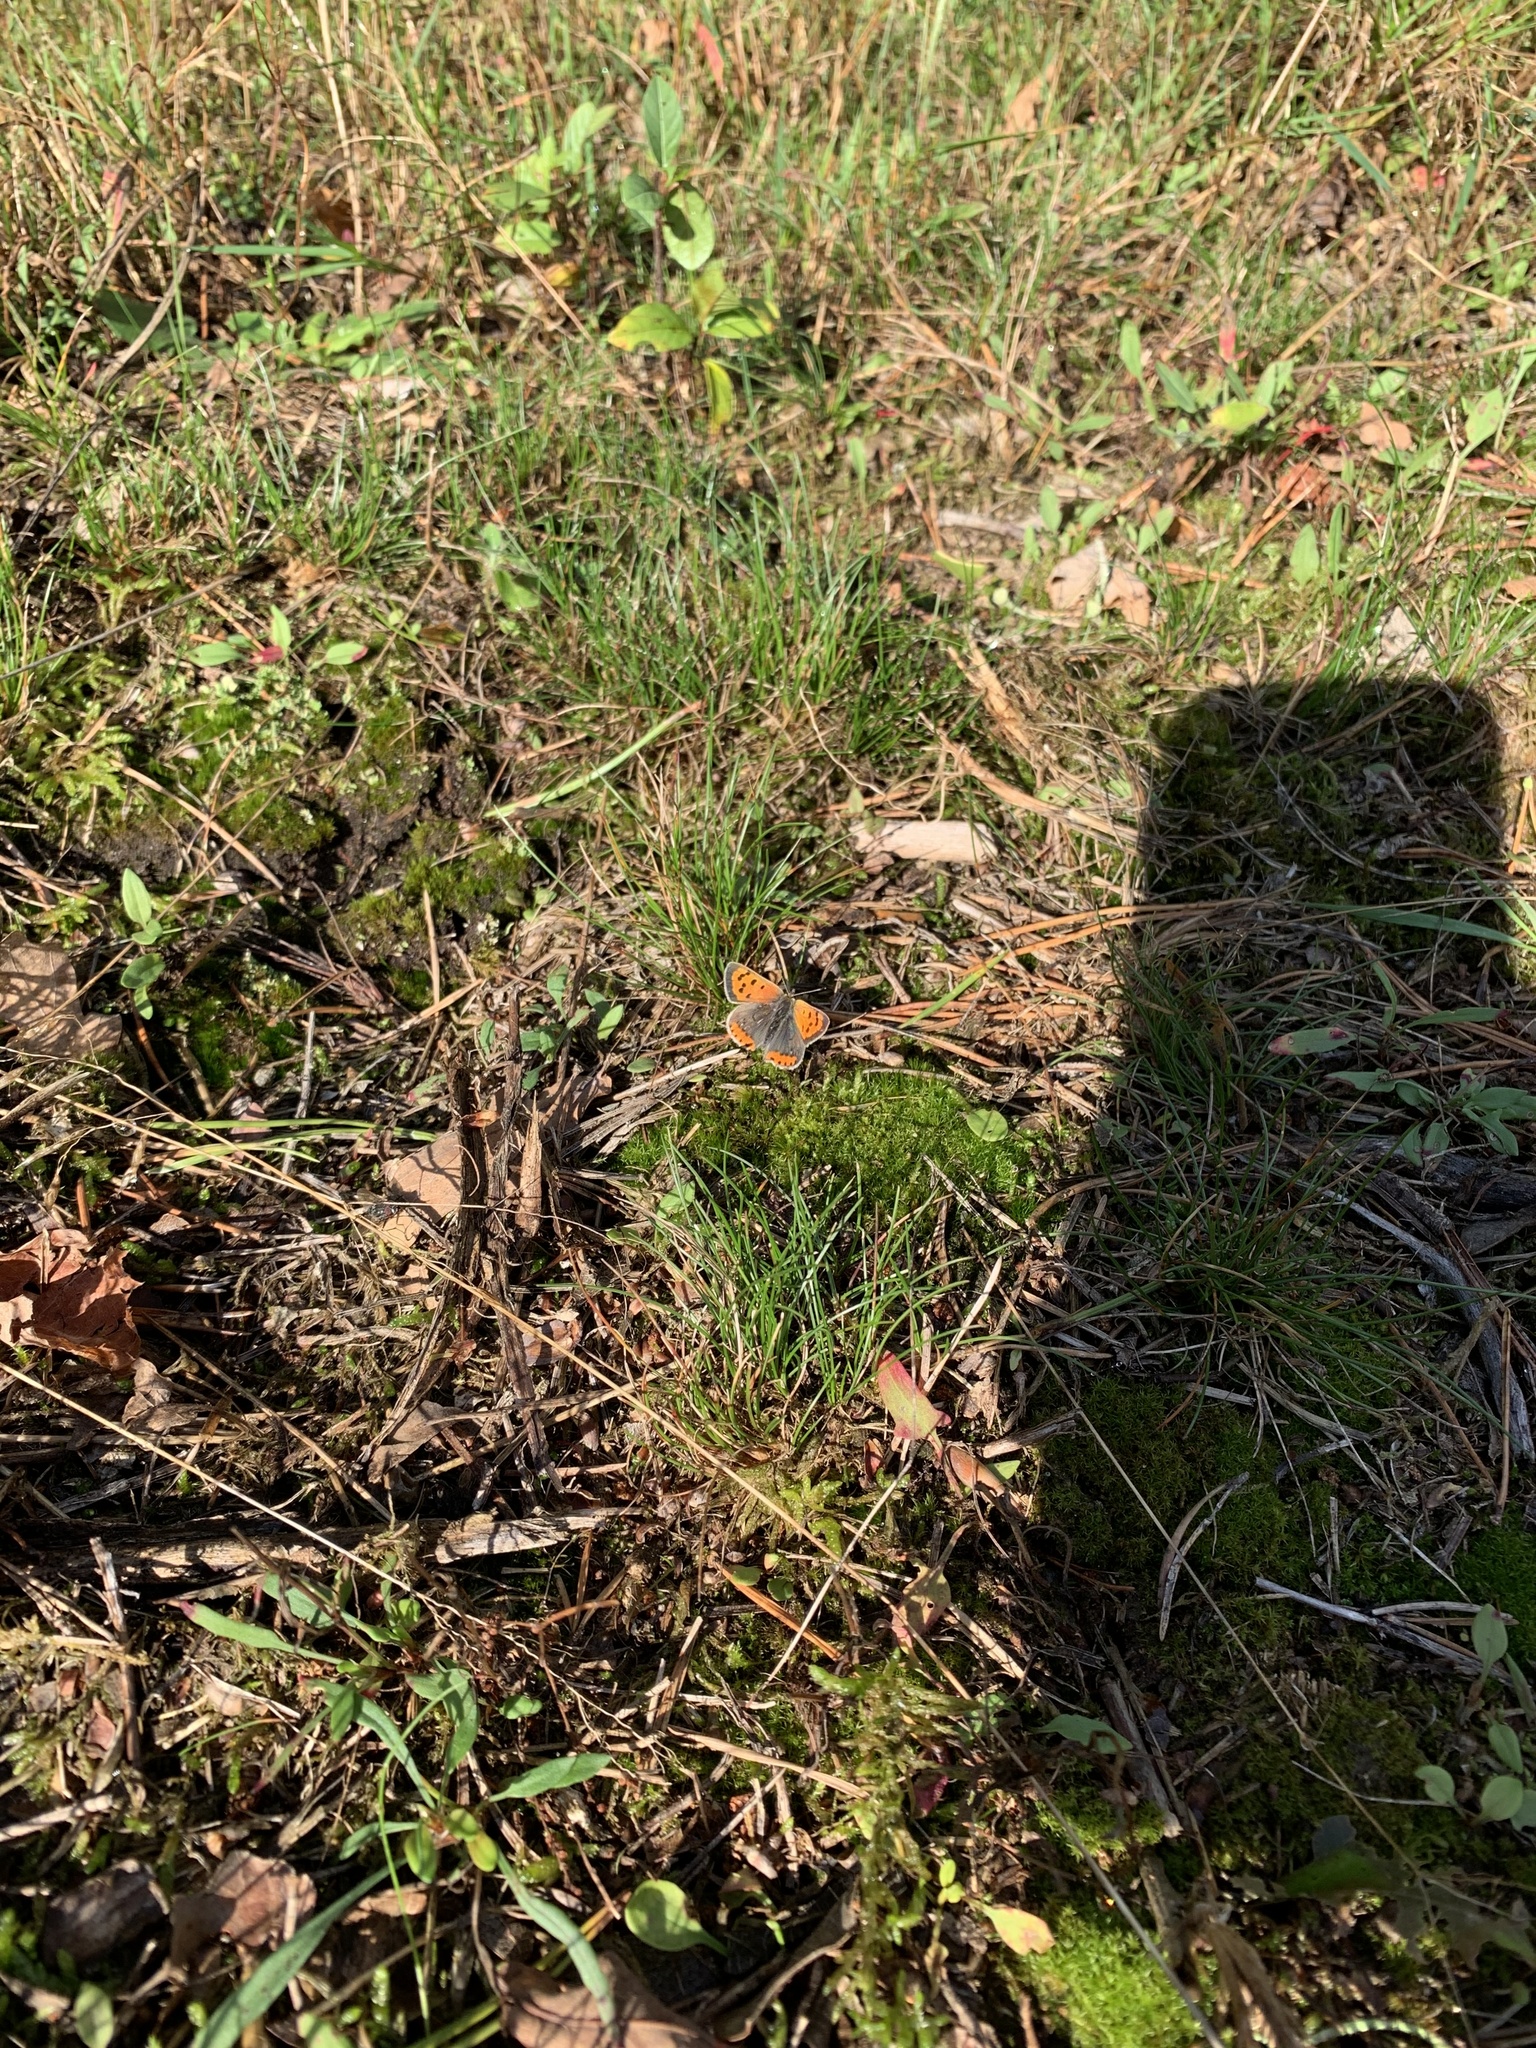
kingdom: Animalia
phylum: Arthropoda
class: Insecta
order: Lepidoptera
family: Lycaenidae
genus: Lycaena
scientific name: Lycaena phlaeas
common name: Small copper
